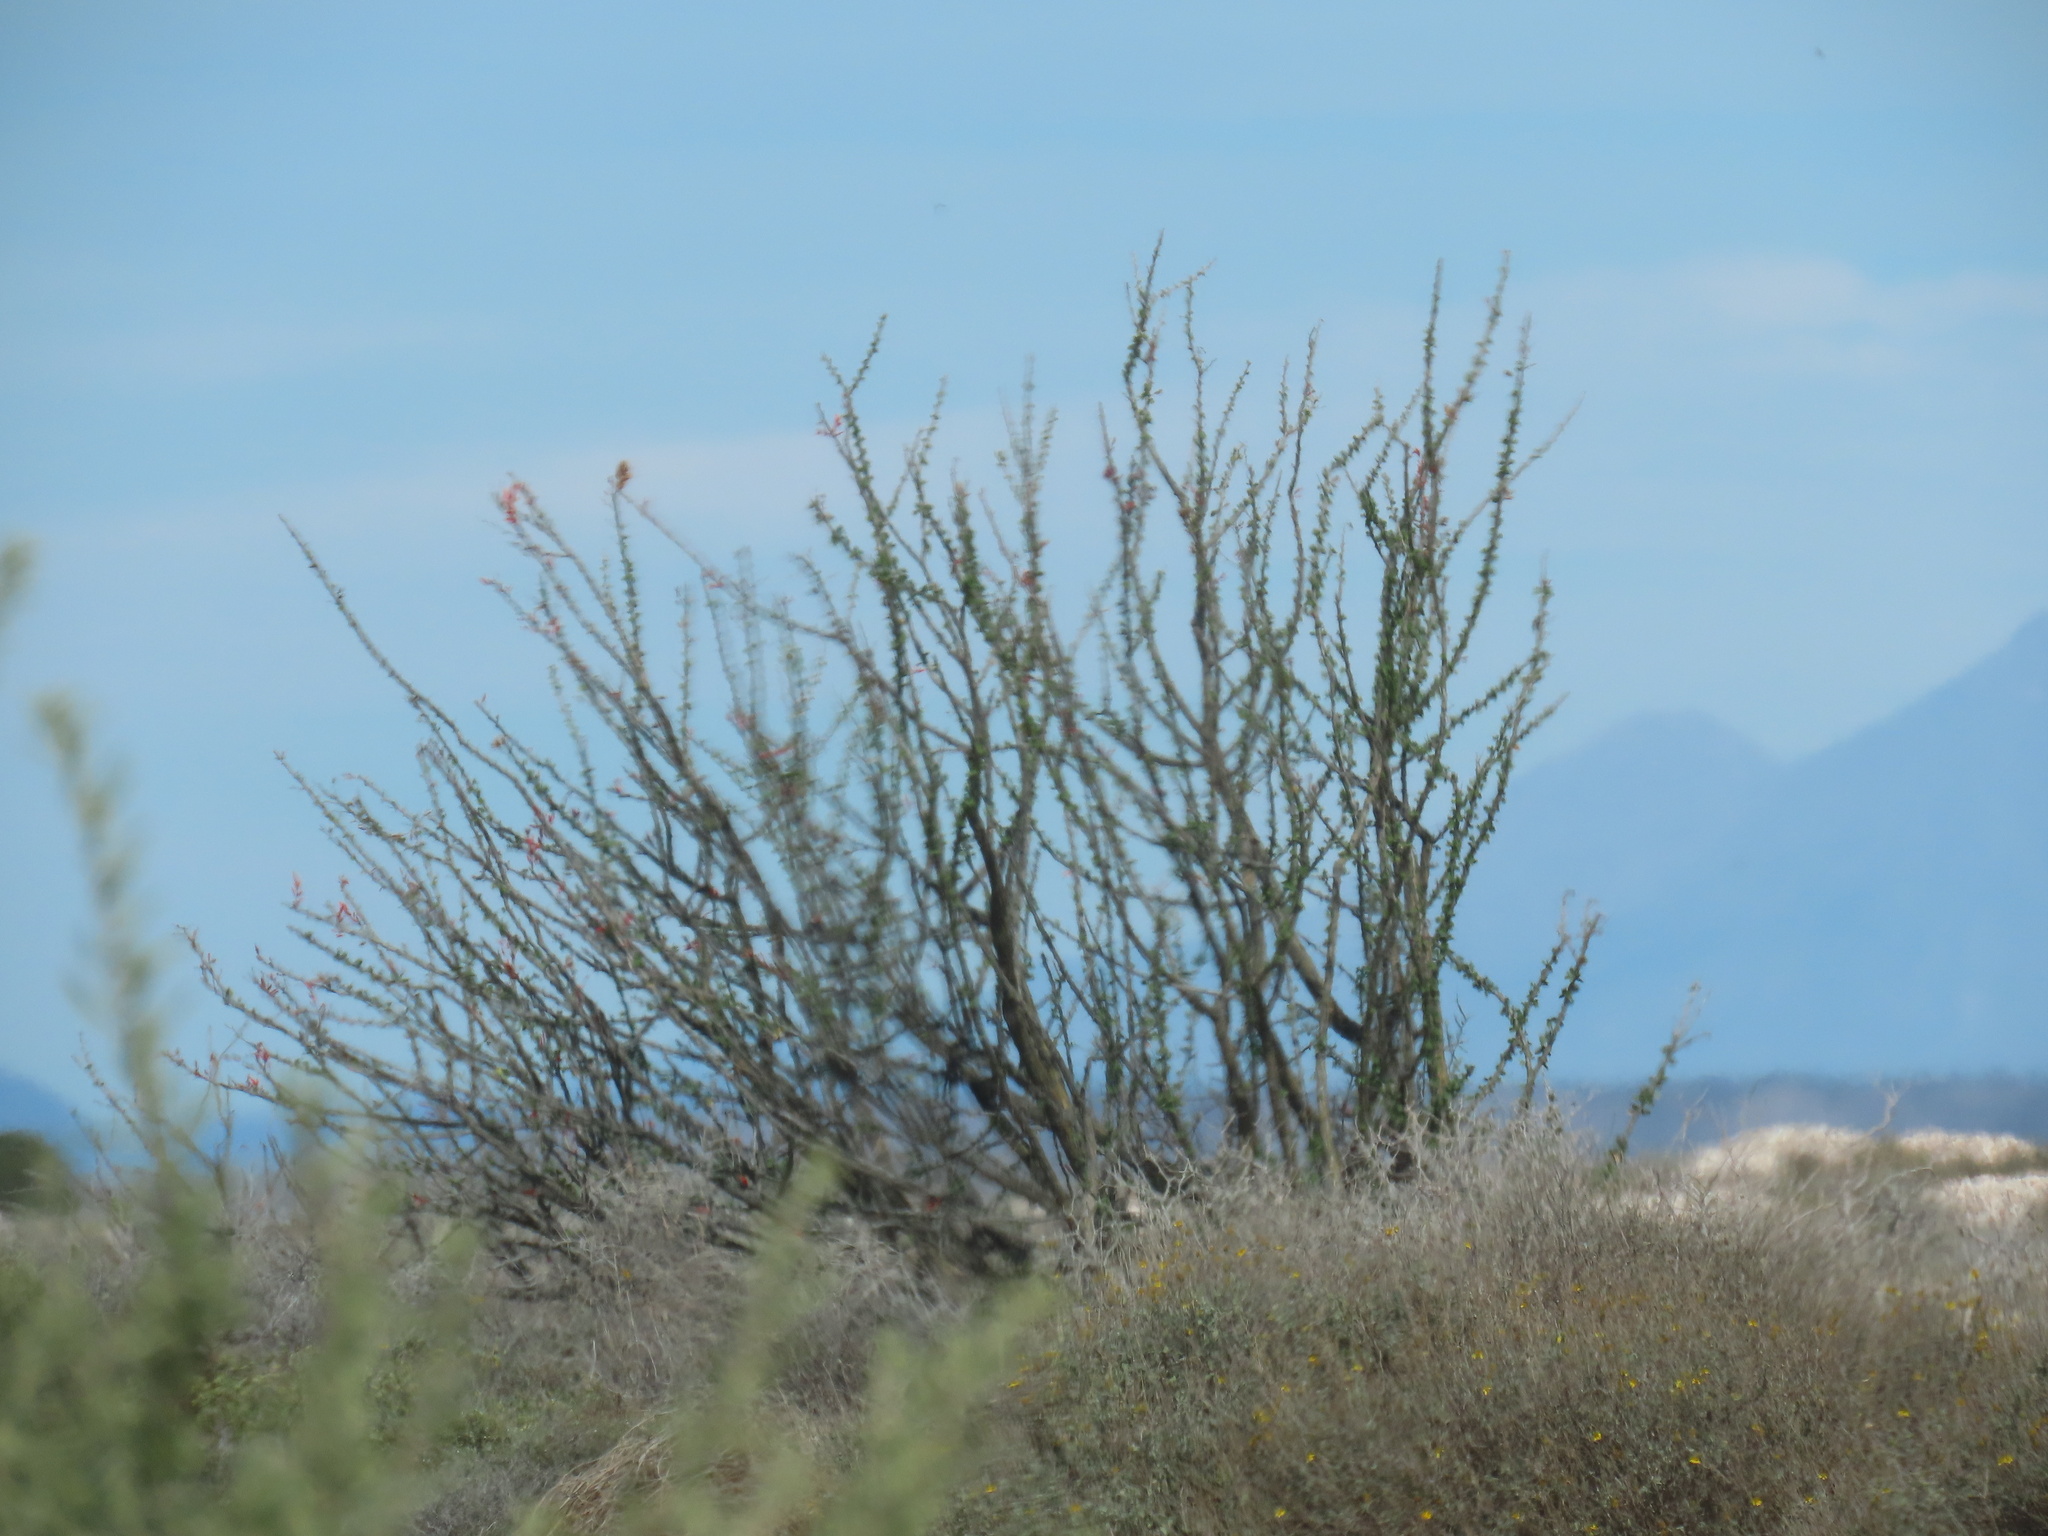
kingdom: Plantae
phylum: Tracheophyta
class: Magnoliopsida
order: Ericales
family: Fouquieriaceae
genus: Fouquieria
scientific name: Fouquieria diguetii
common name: Adam's tree
